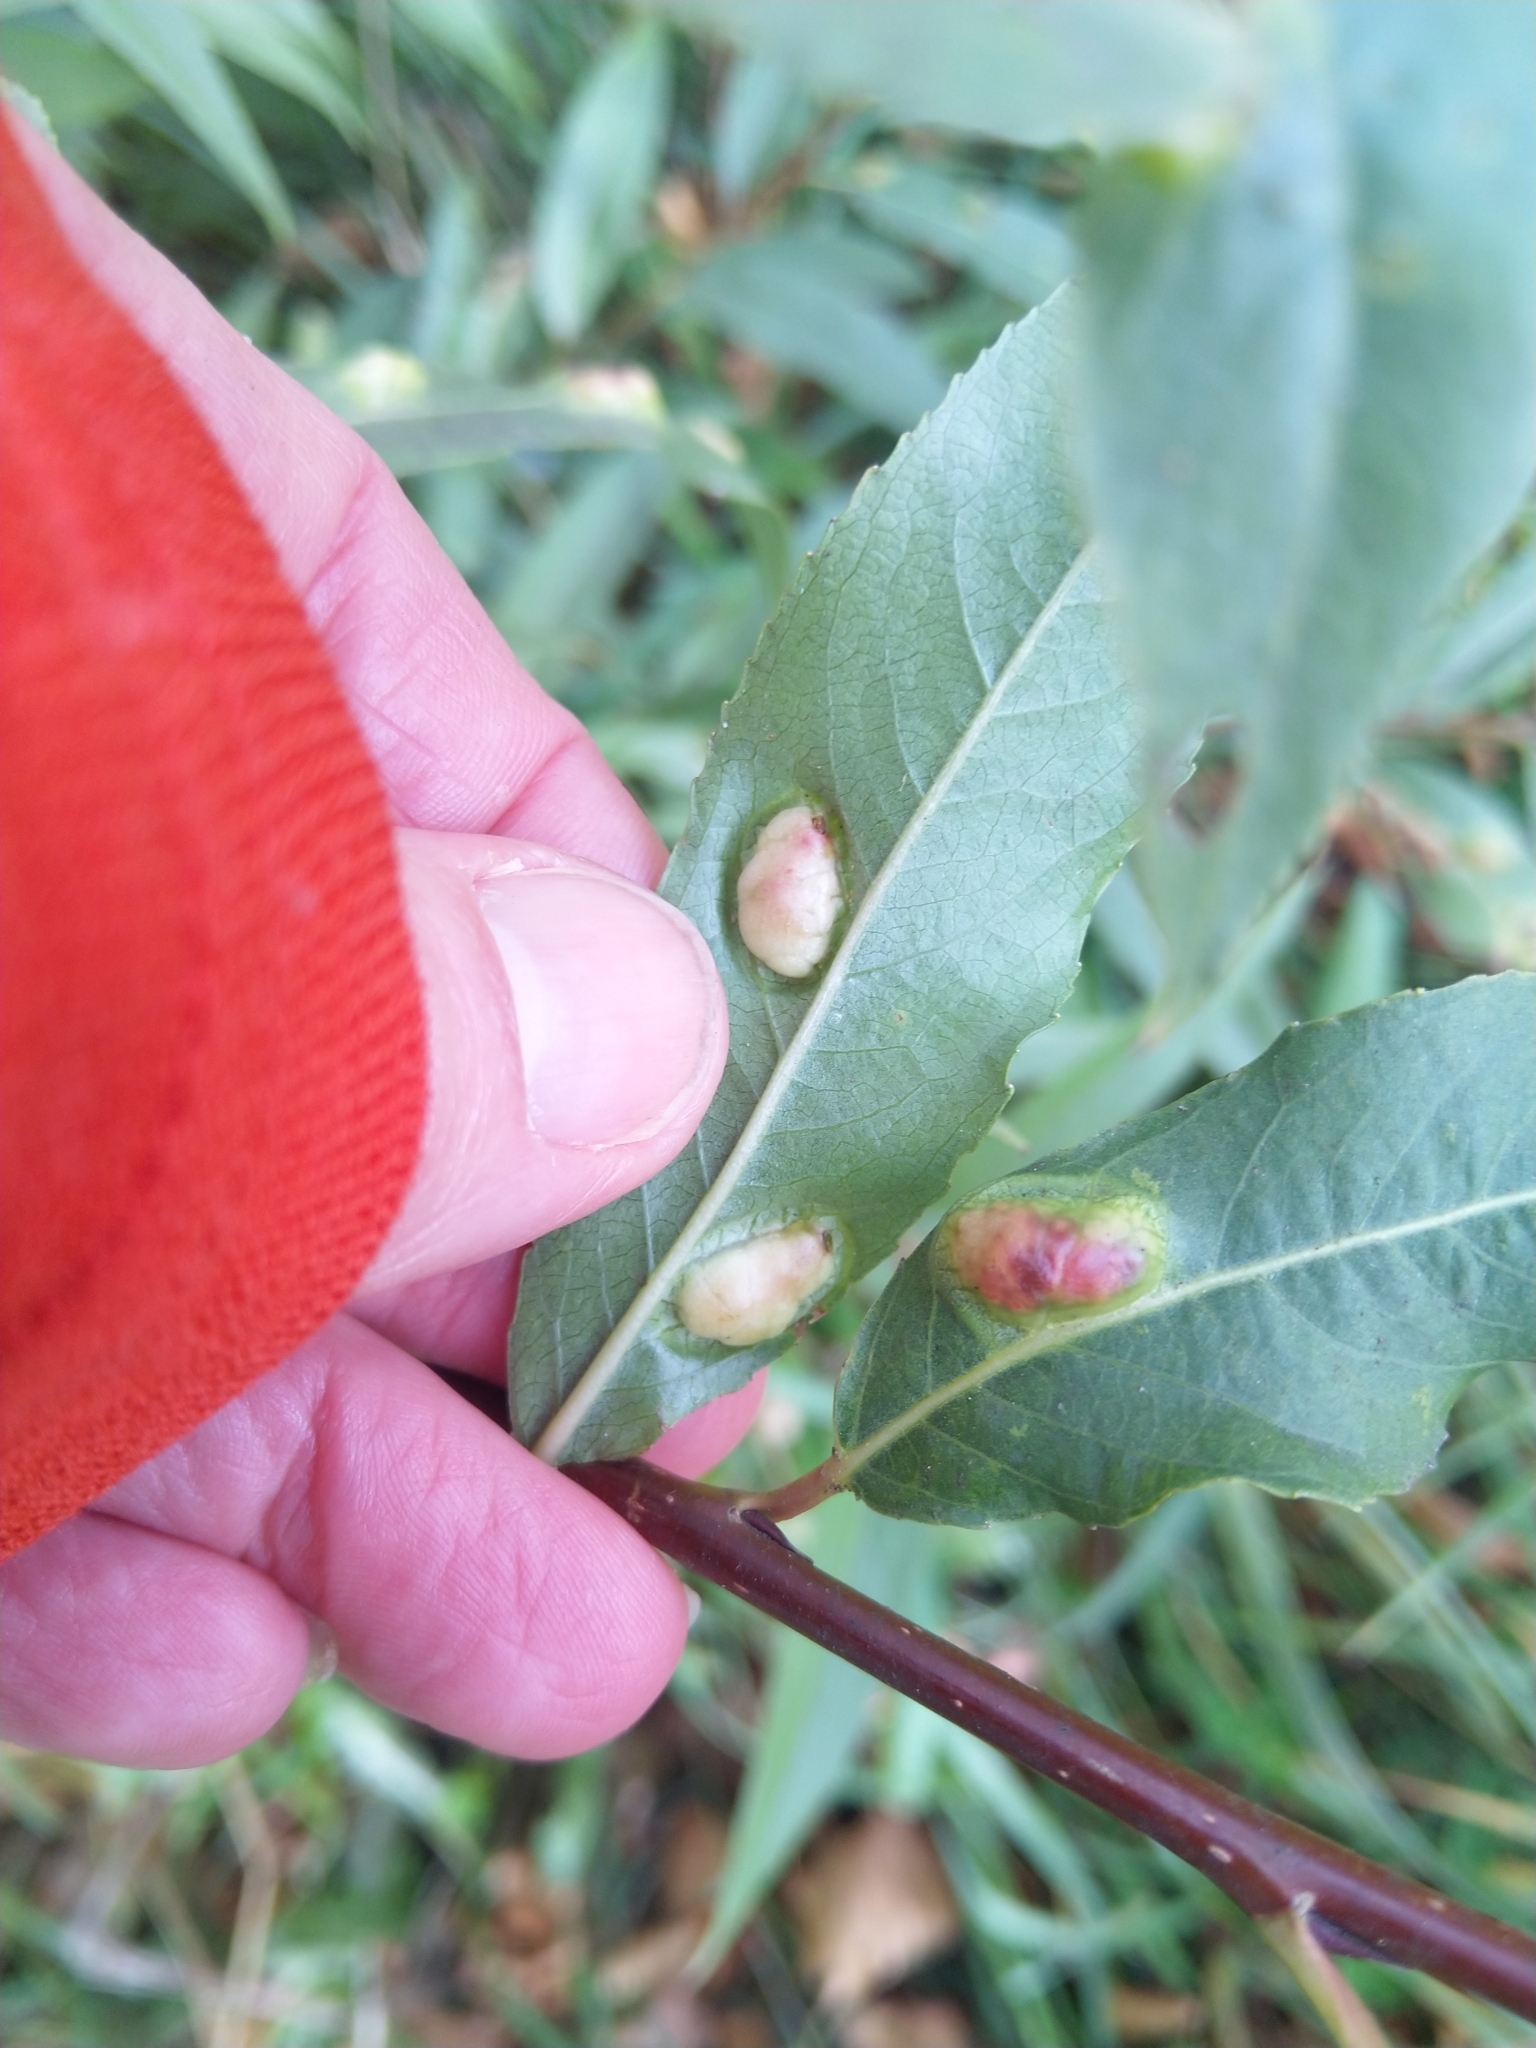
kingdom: Animalia
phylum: Arthropoda
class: Insecta
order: Hymenoptera
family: Tenthredinidae
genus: Pontania
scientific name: Pontania proxima
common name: Common sawfly
